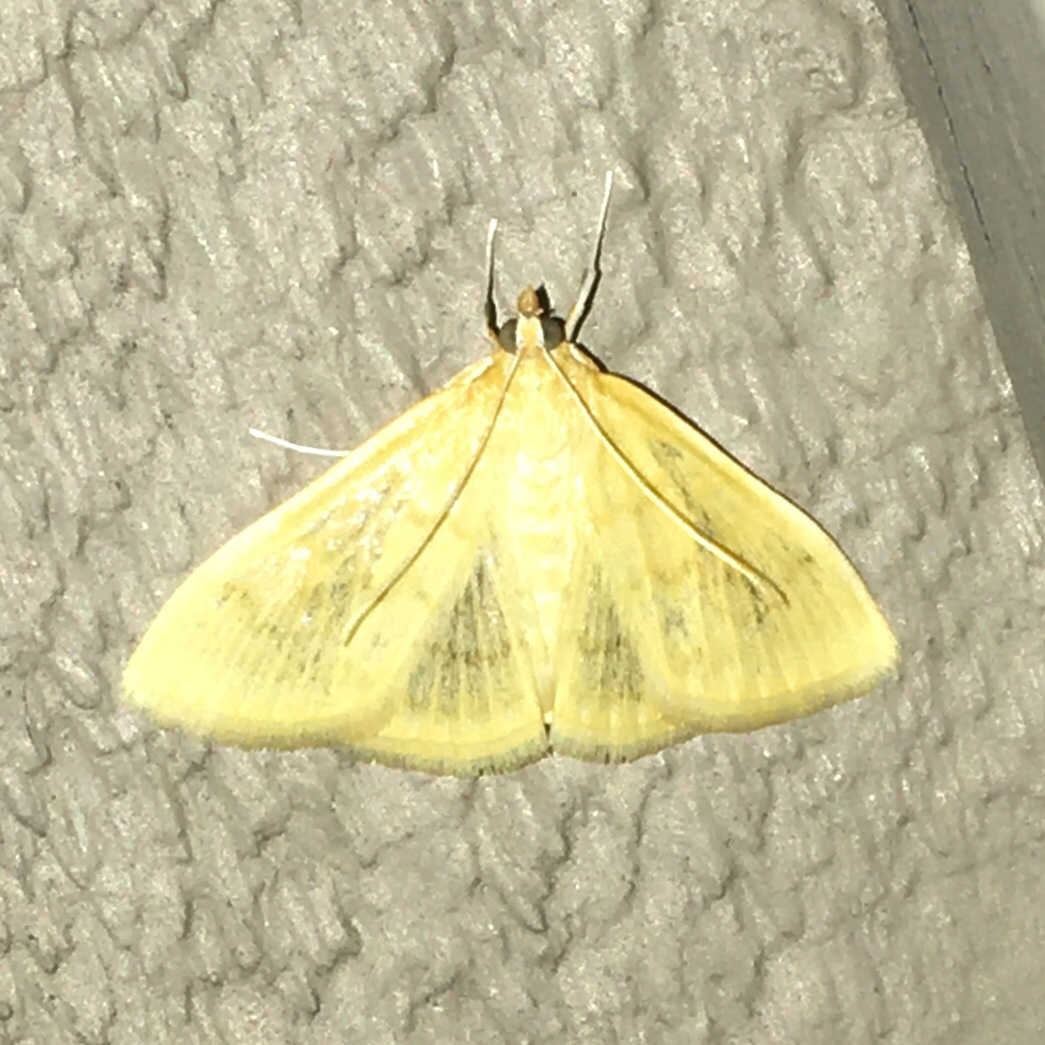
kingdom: Animalia
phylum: Arthropoda
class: Insecta
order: Lepidoptera
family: Crambidae
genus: Sitochroa
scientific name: Sitochroa palealis
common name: Greenish-yellow sitochroa moth
